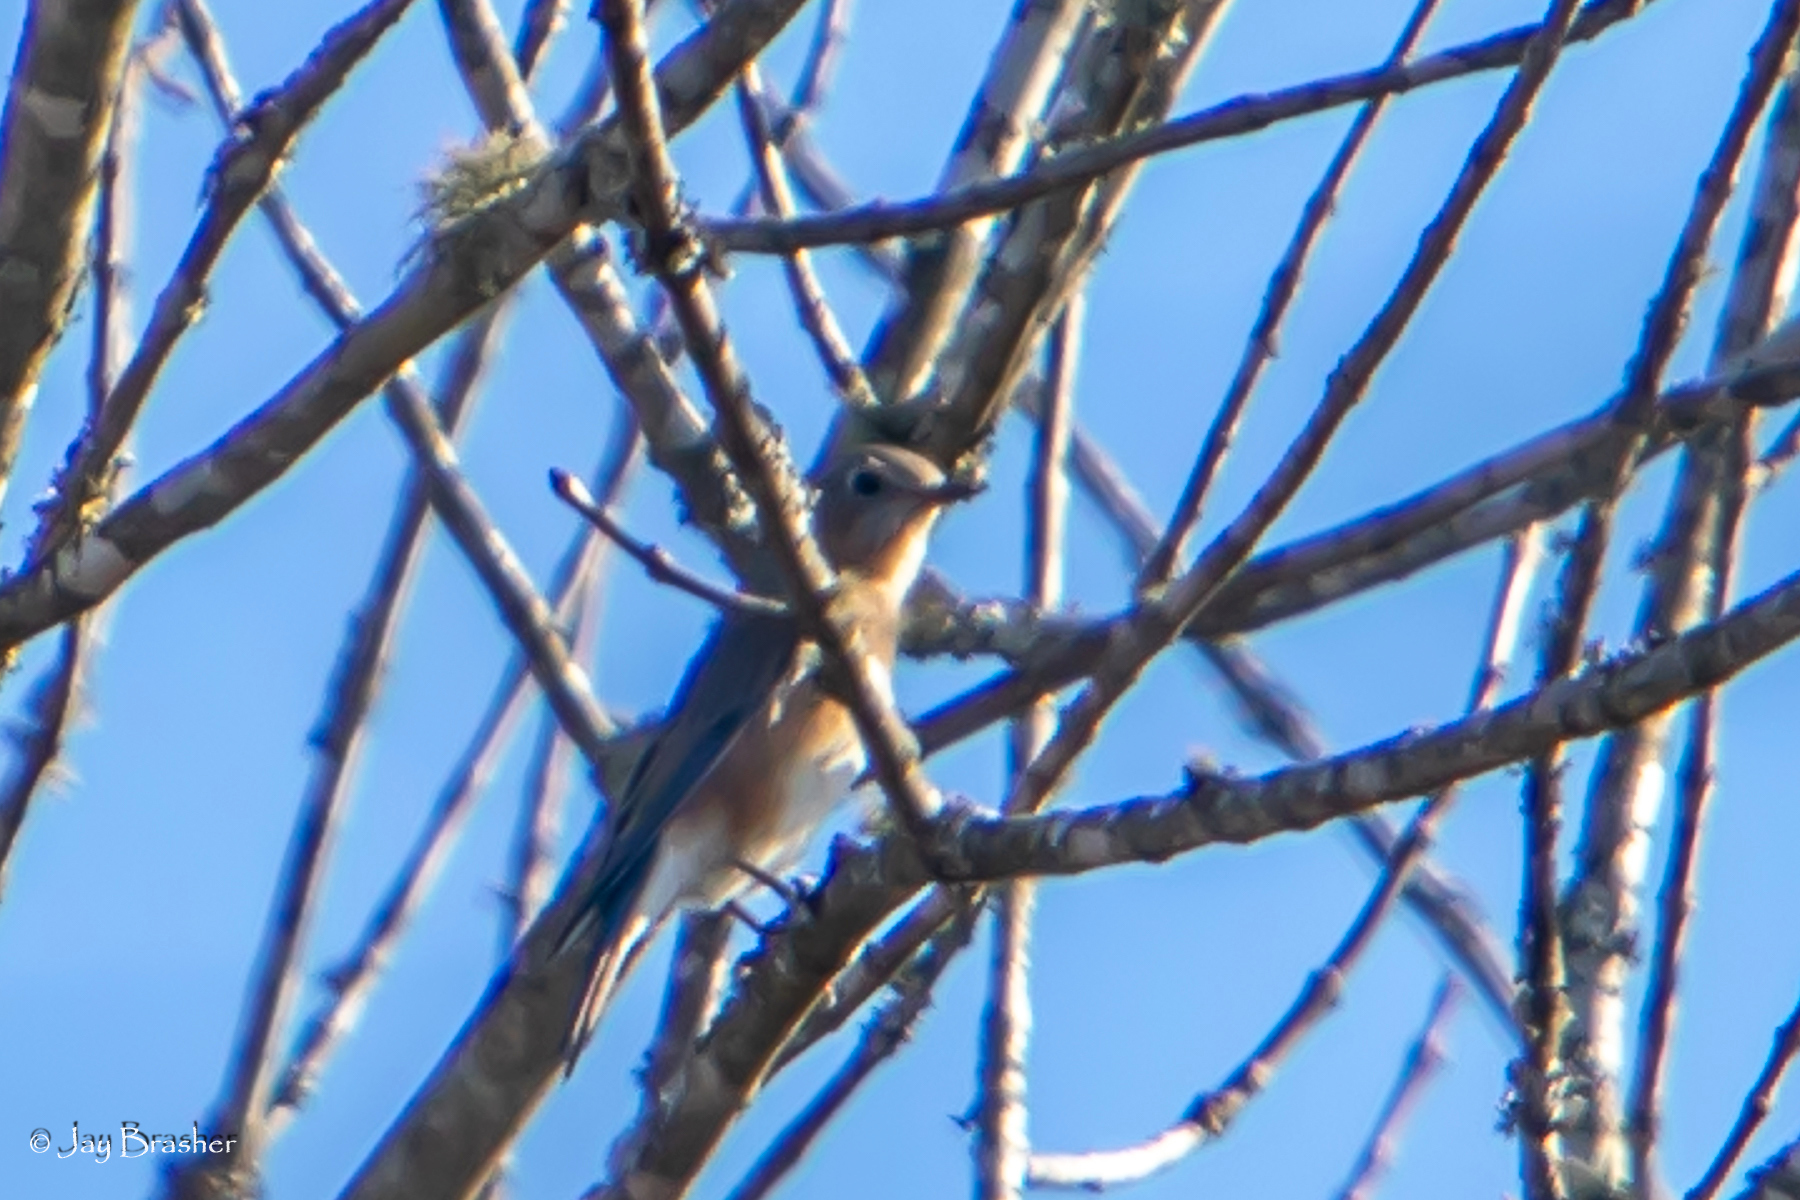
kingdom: Animalia
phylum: Chordata
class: Aves
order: Passeriformes
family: Turdidae
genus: Sialia
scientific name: Sialia sialis
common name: Eastern bluebird
